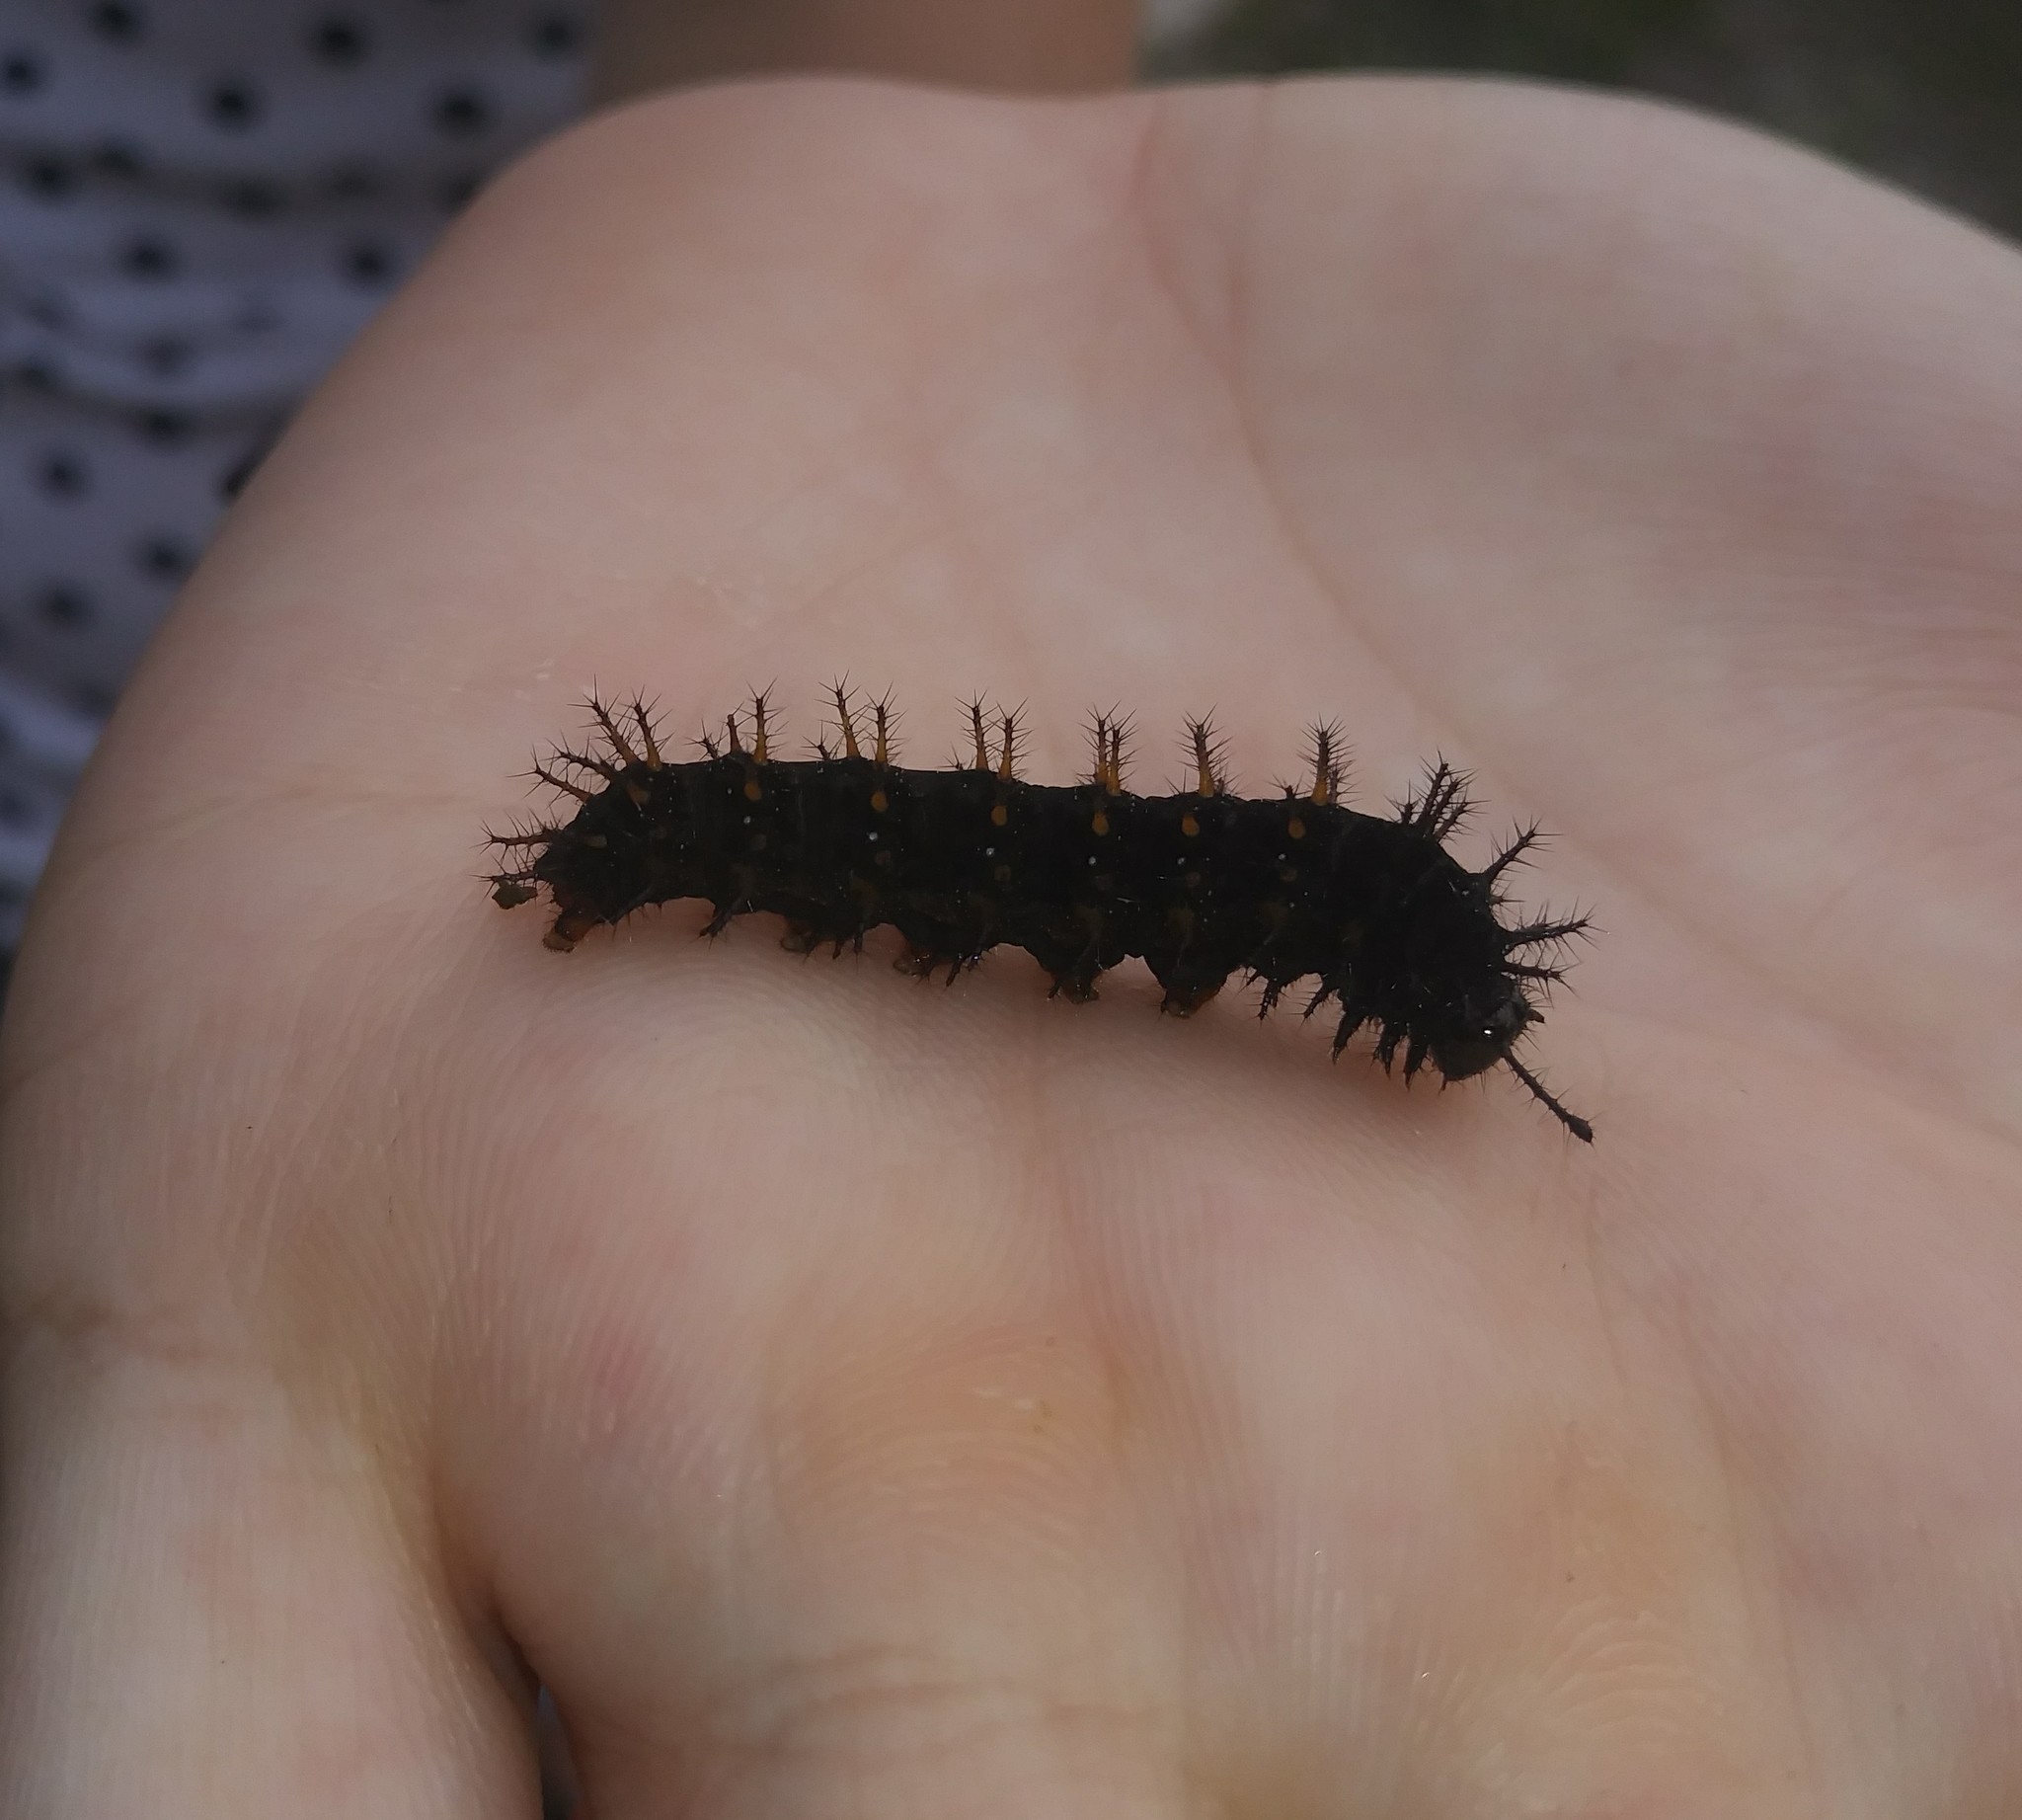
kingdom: Animalia
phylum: Arthropoda
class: Insecta
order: Lepidoptera
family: Nymphalidae
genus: Anartia
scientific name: Anartia jatrophae
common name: White peacock
